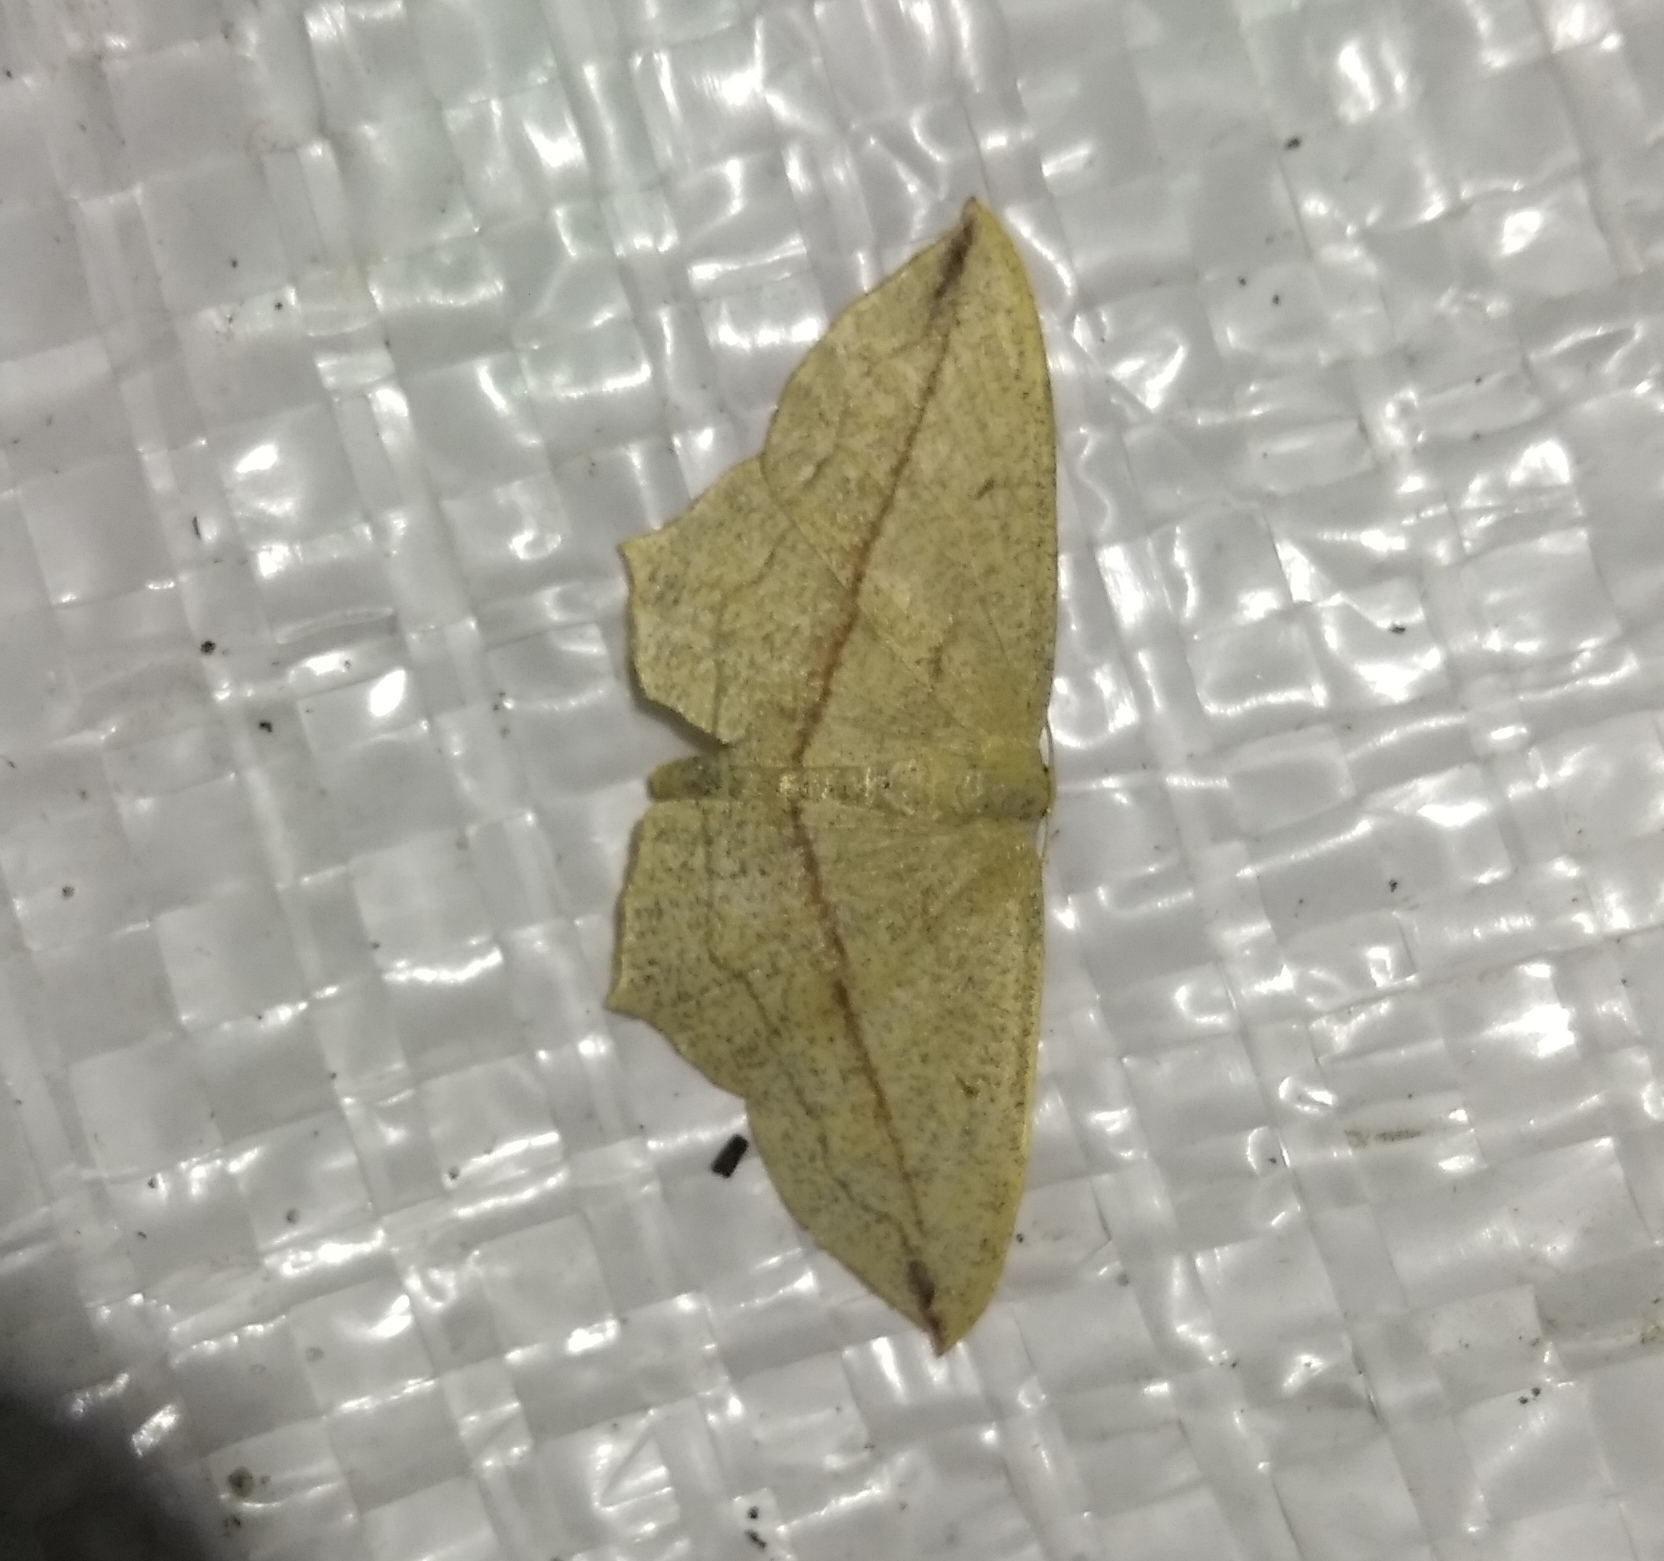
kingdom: Animalia
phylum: Arthropoda
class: Insecta
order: Lepidoptera
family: Geometridae
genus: Timandra
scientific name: Timandra comae
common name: Blood-vein
